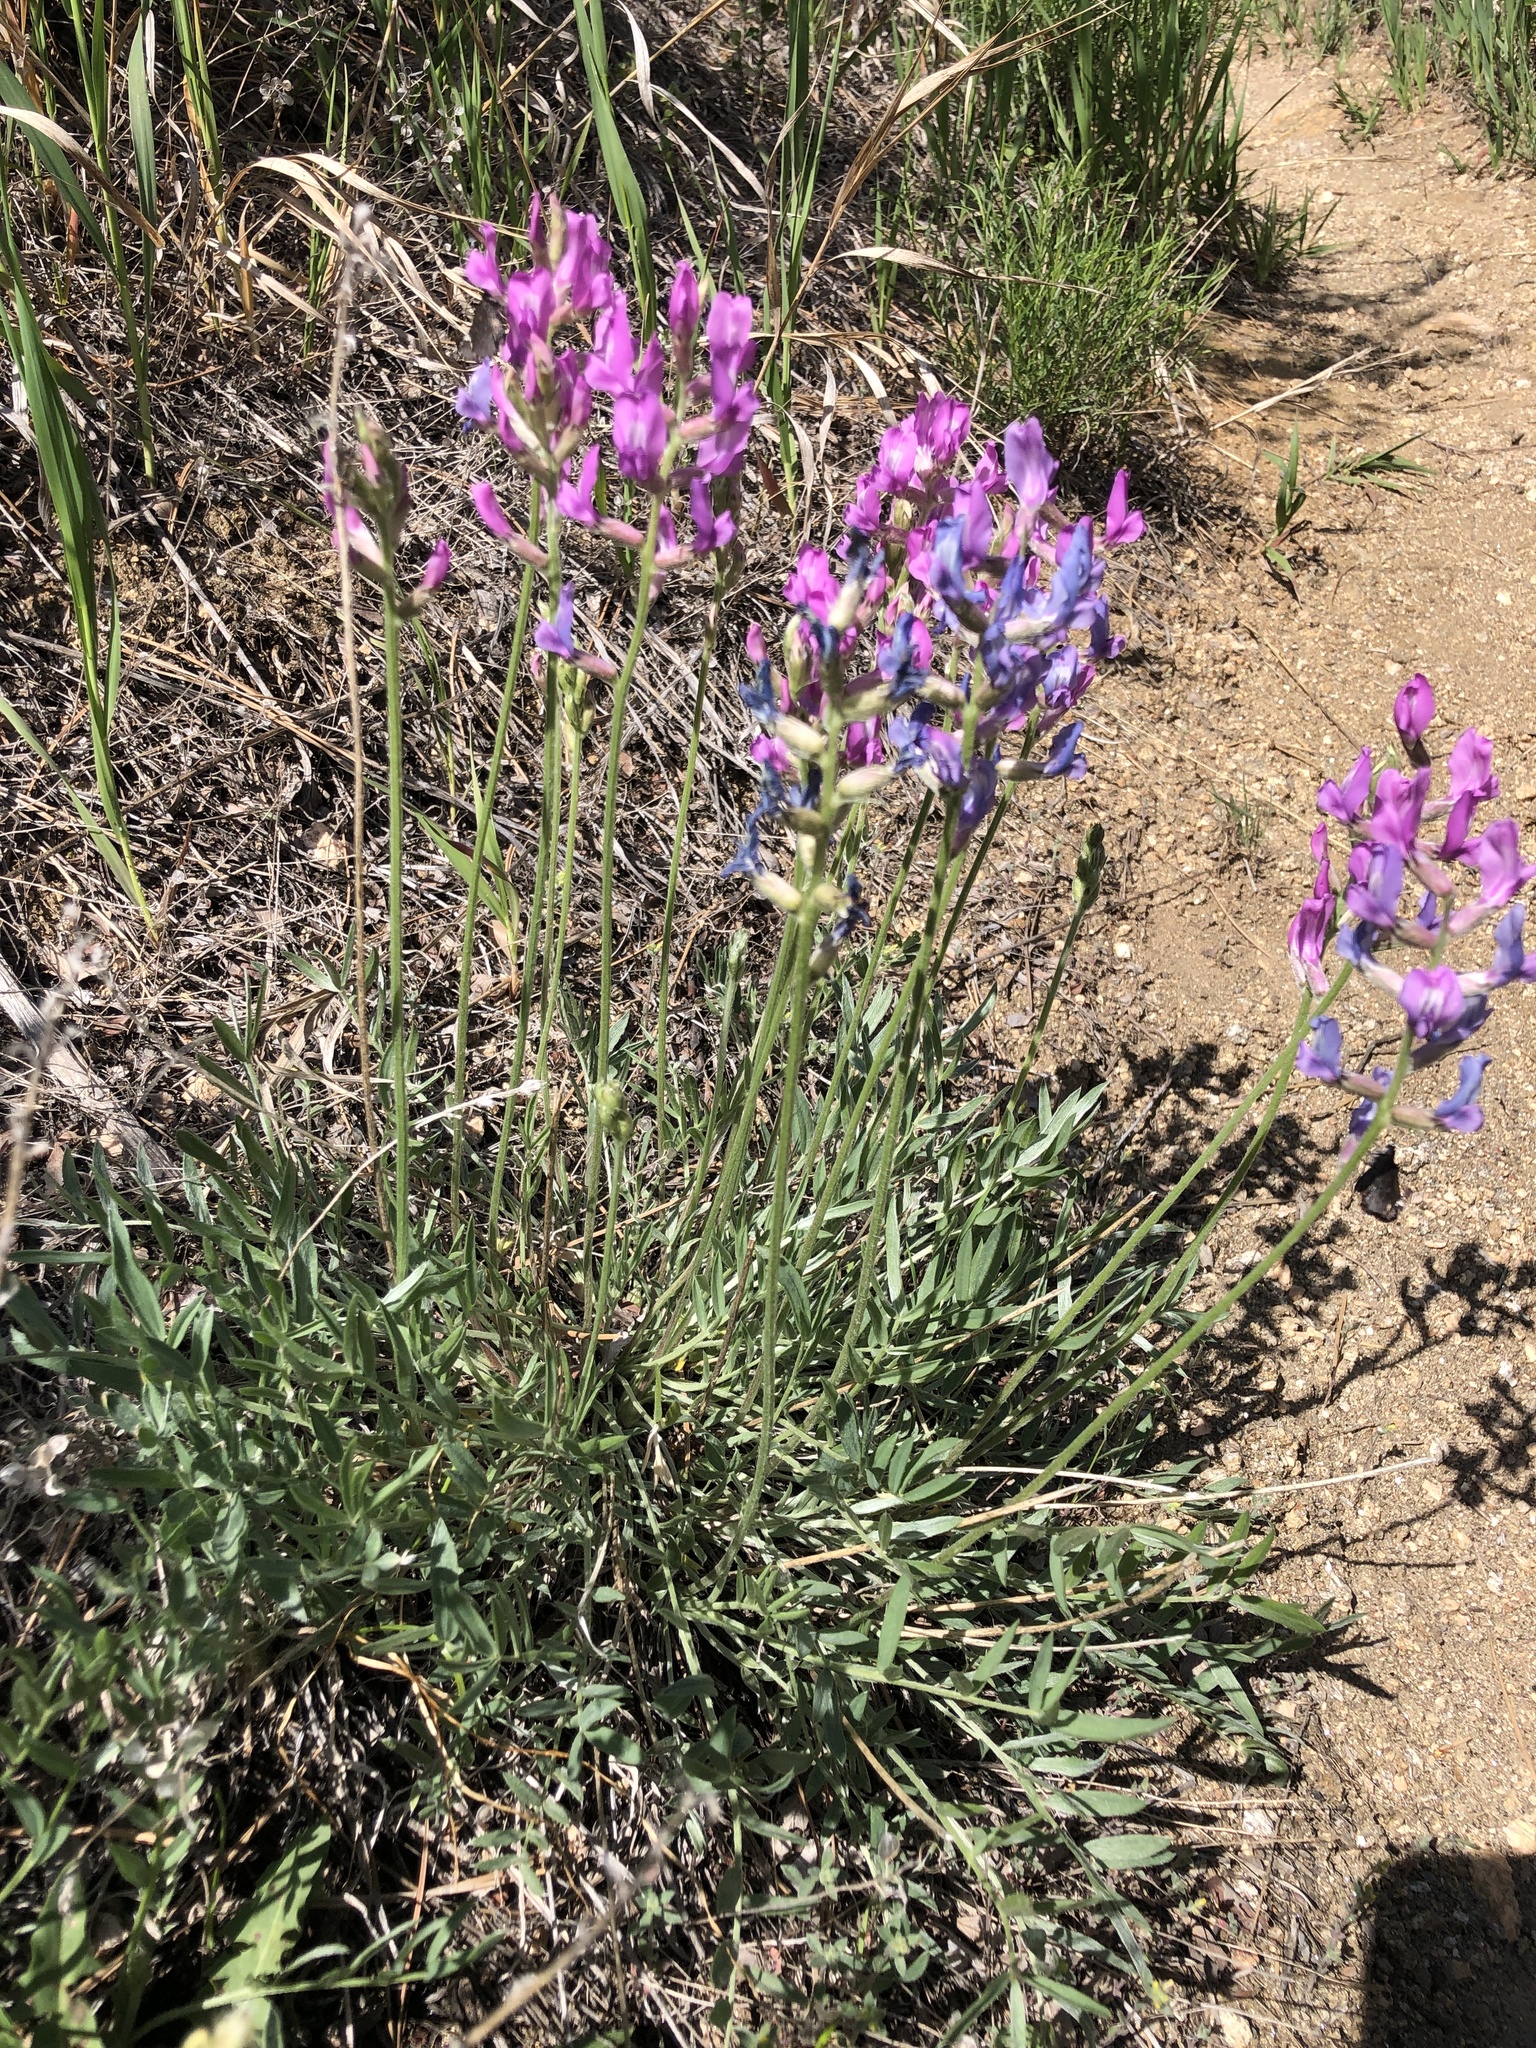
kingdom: Plantae
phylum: Tracheophyta
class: Magnoliopsida
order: Fabales
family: Fabaceae
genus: Oxytropis
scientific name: Oxytropis lambertii
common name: Purple locoweed
